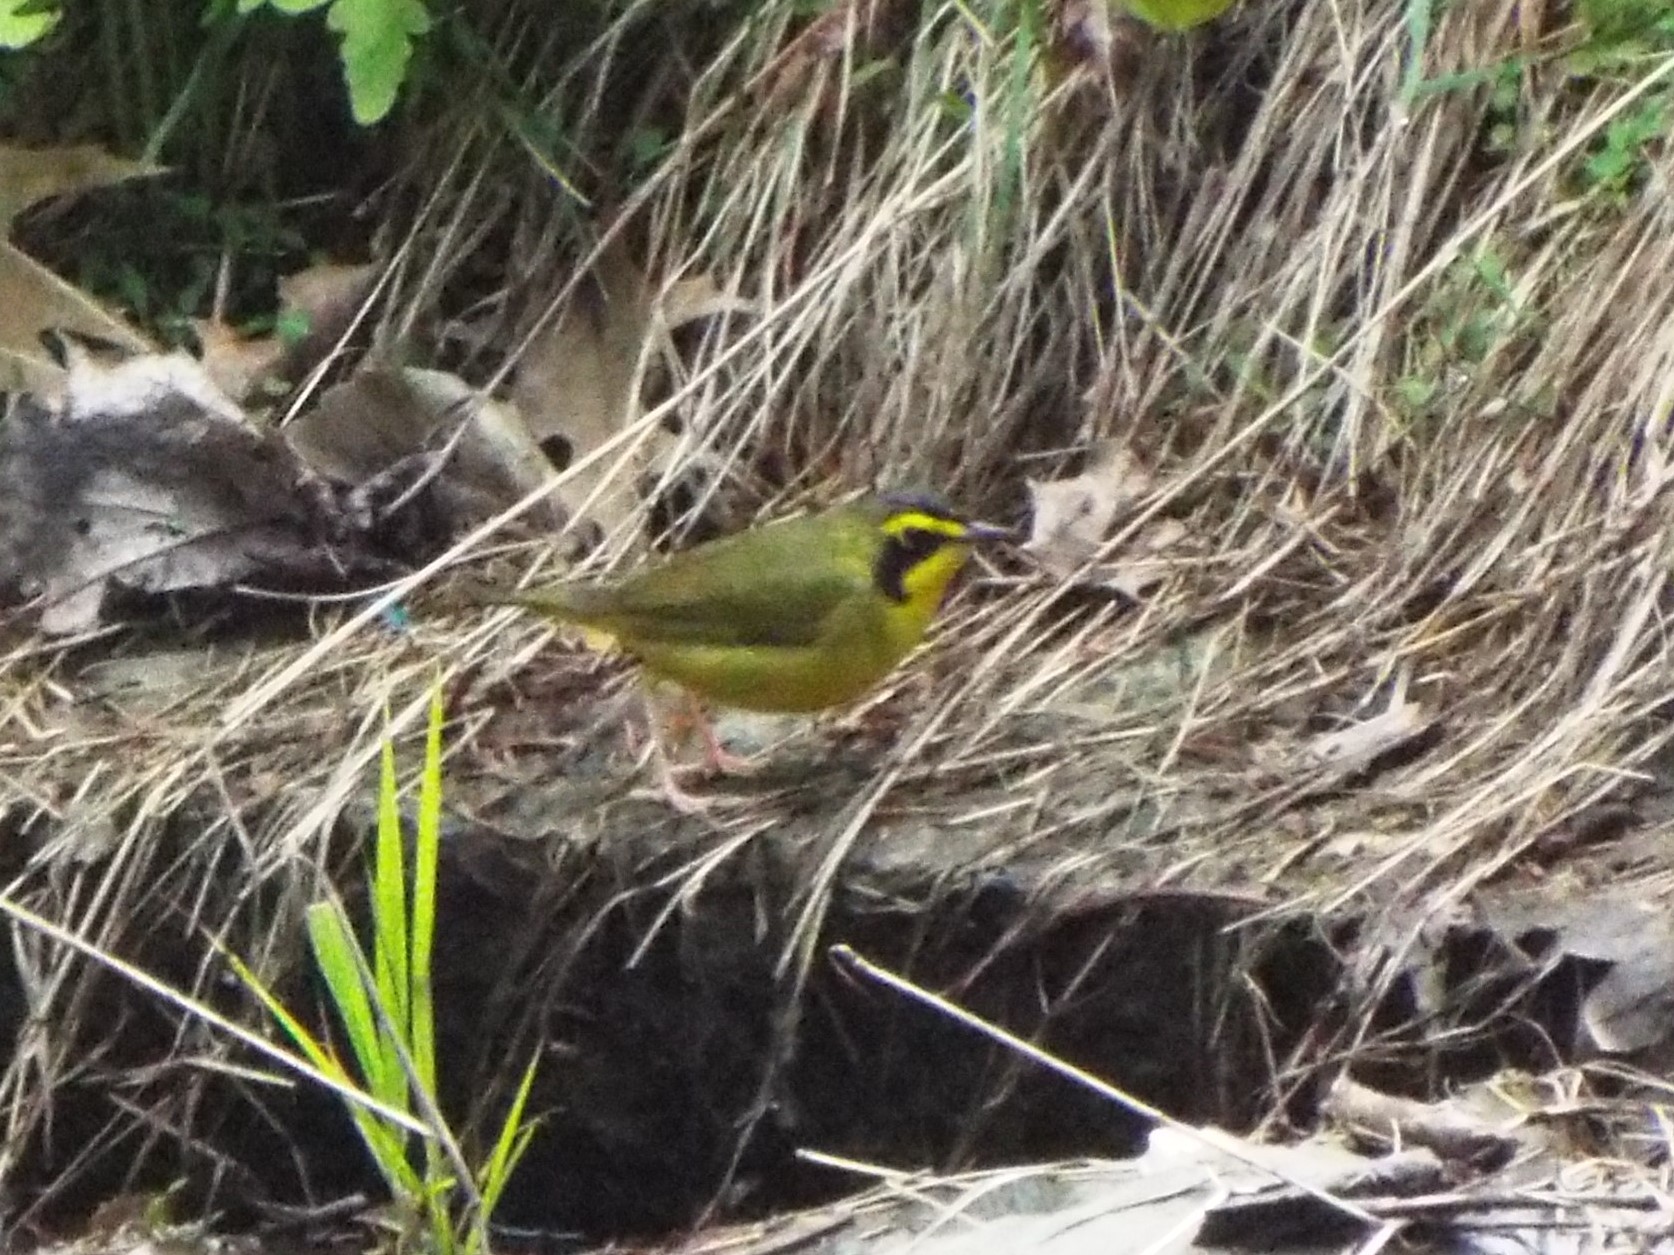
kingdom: Animalia
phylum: Chordata
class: Aves
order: Passeriformes
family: Parulidae
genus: Geothlypis
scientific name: Geothlypis formosa
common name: Kentucky warbler
